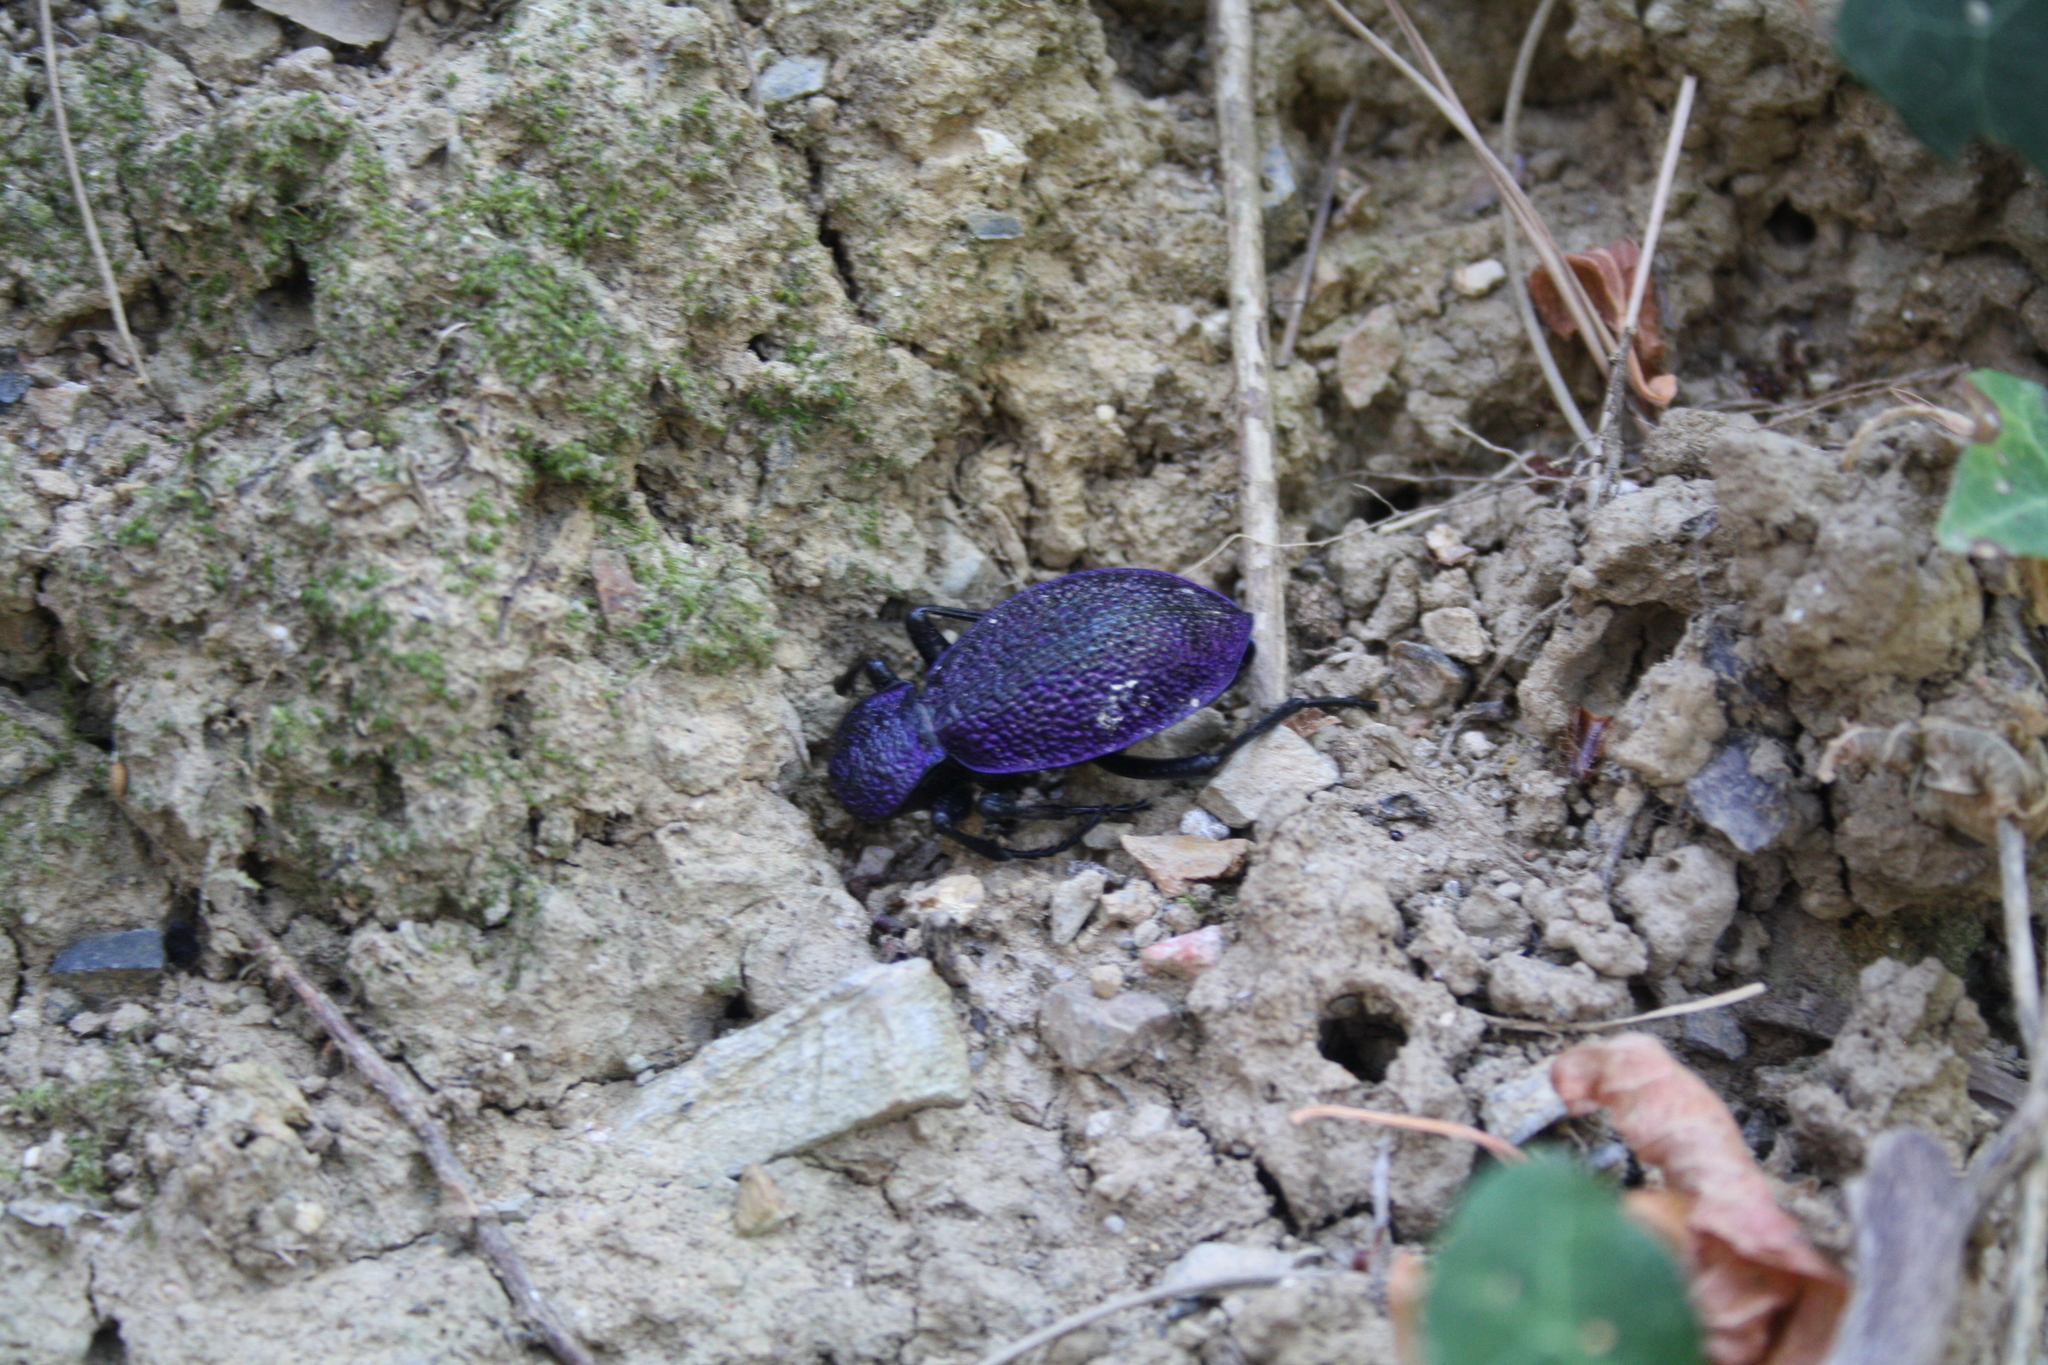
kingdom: Animalia
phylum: Arthropoda
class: Insecta
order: Coleoptera
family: Carabidae
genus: Carabus
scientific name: Carabus scabrosus
